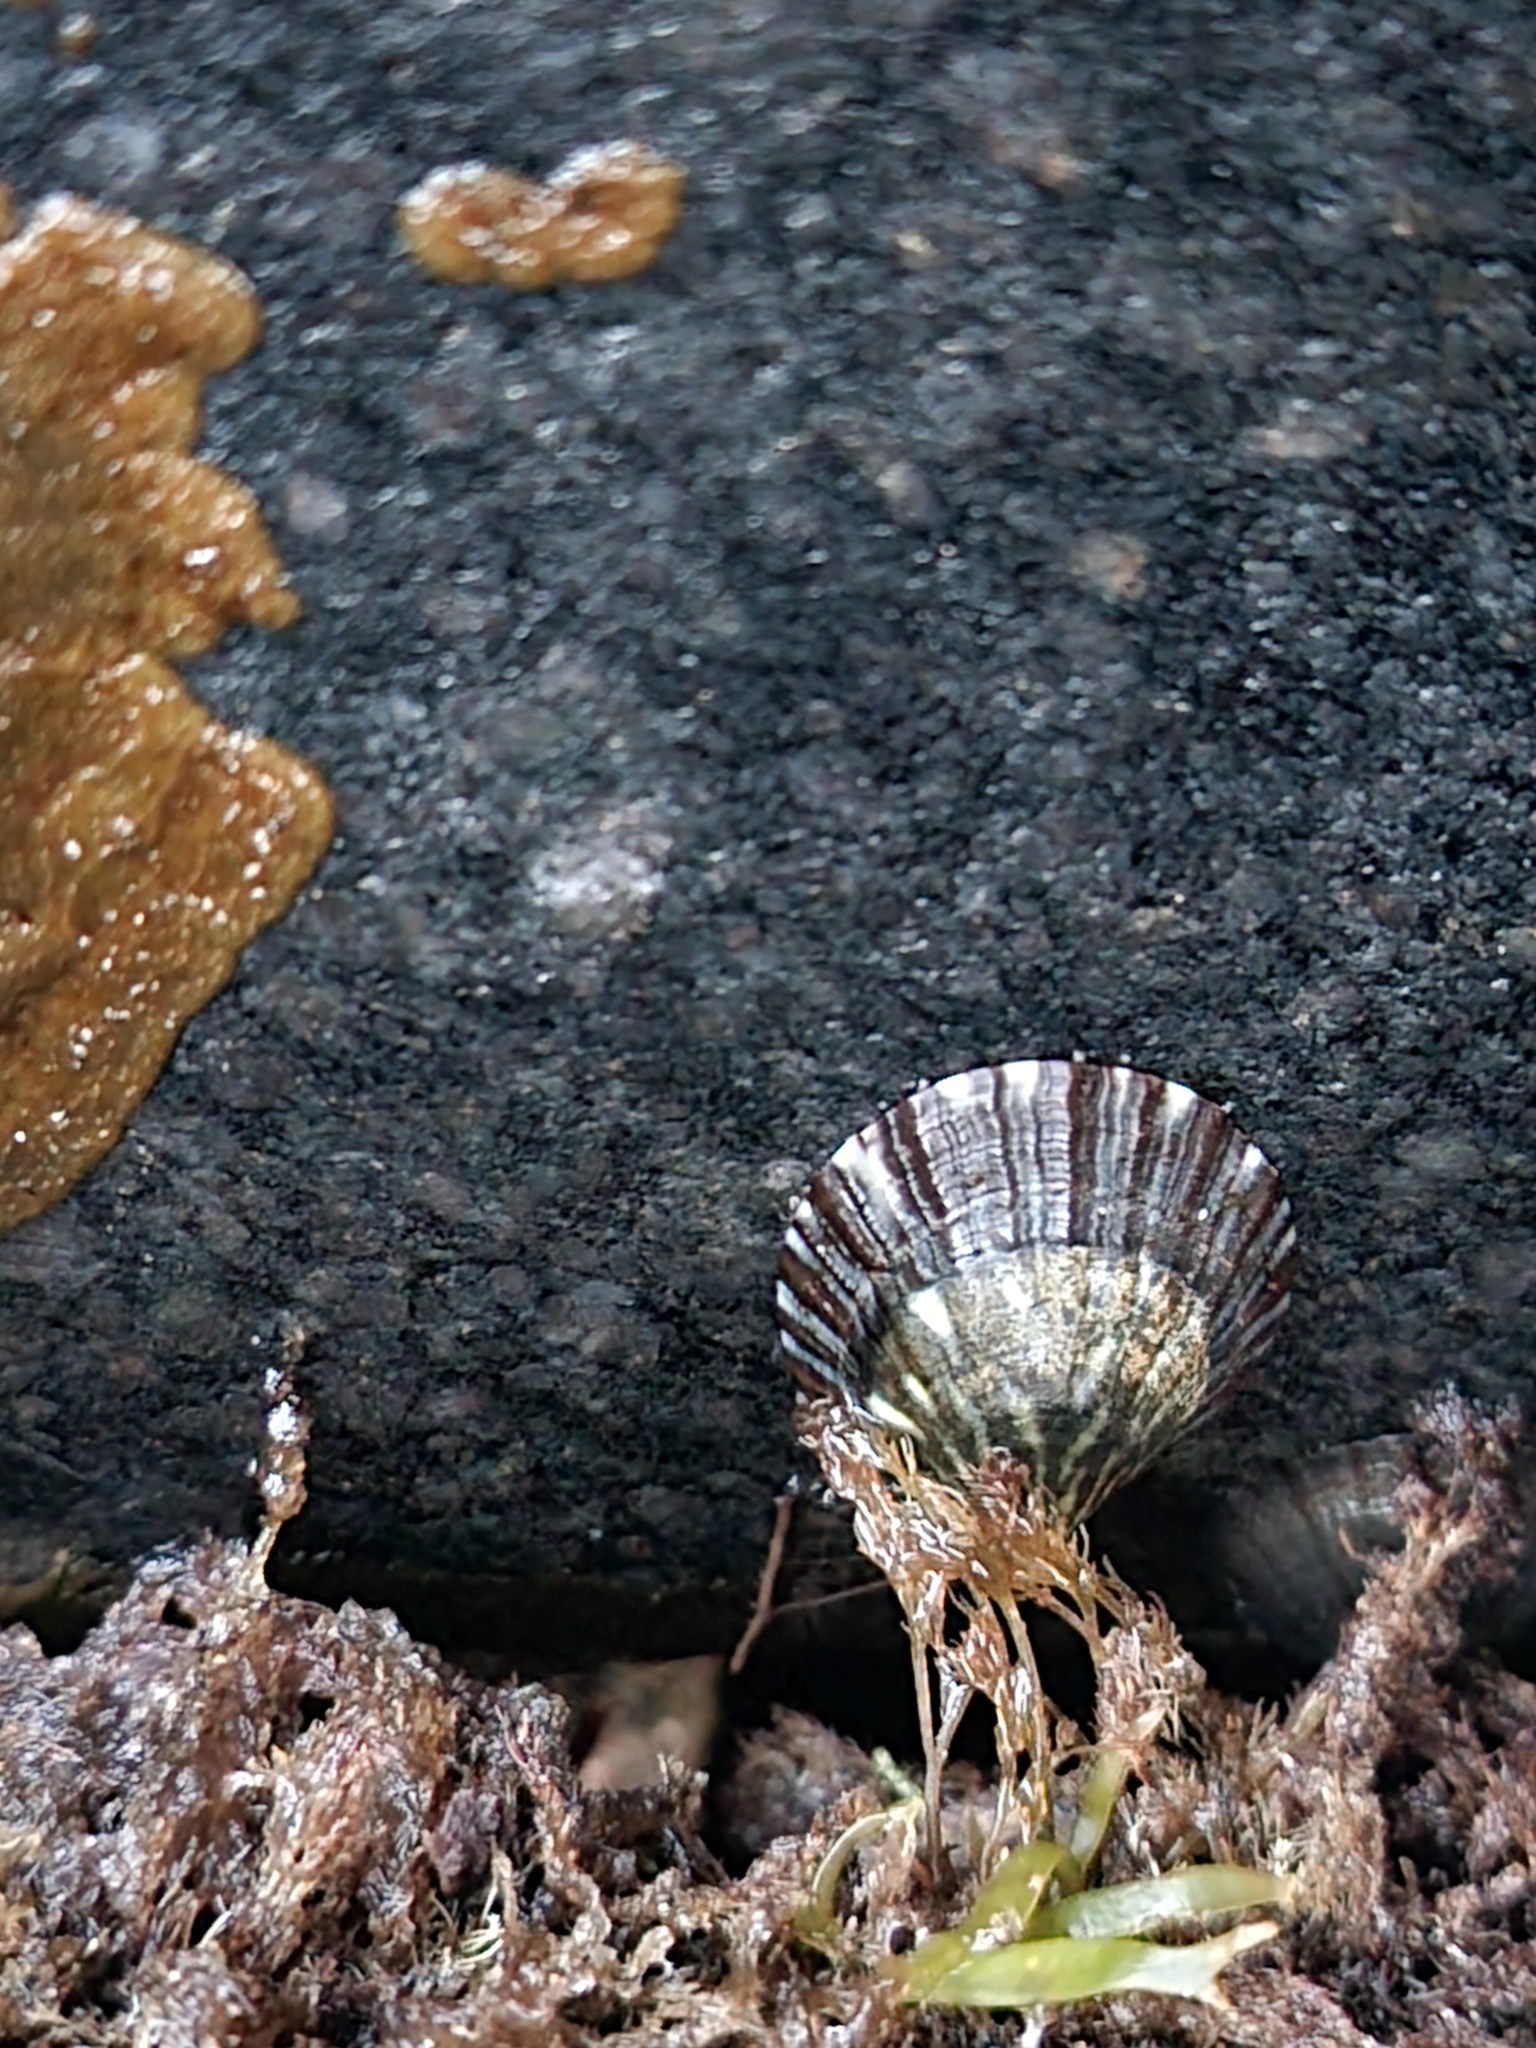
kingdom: Animalia
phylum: Mollusca
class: Gastropoda
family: Nacellidae
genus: Cellana
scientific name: Cellana radians
